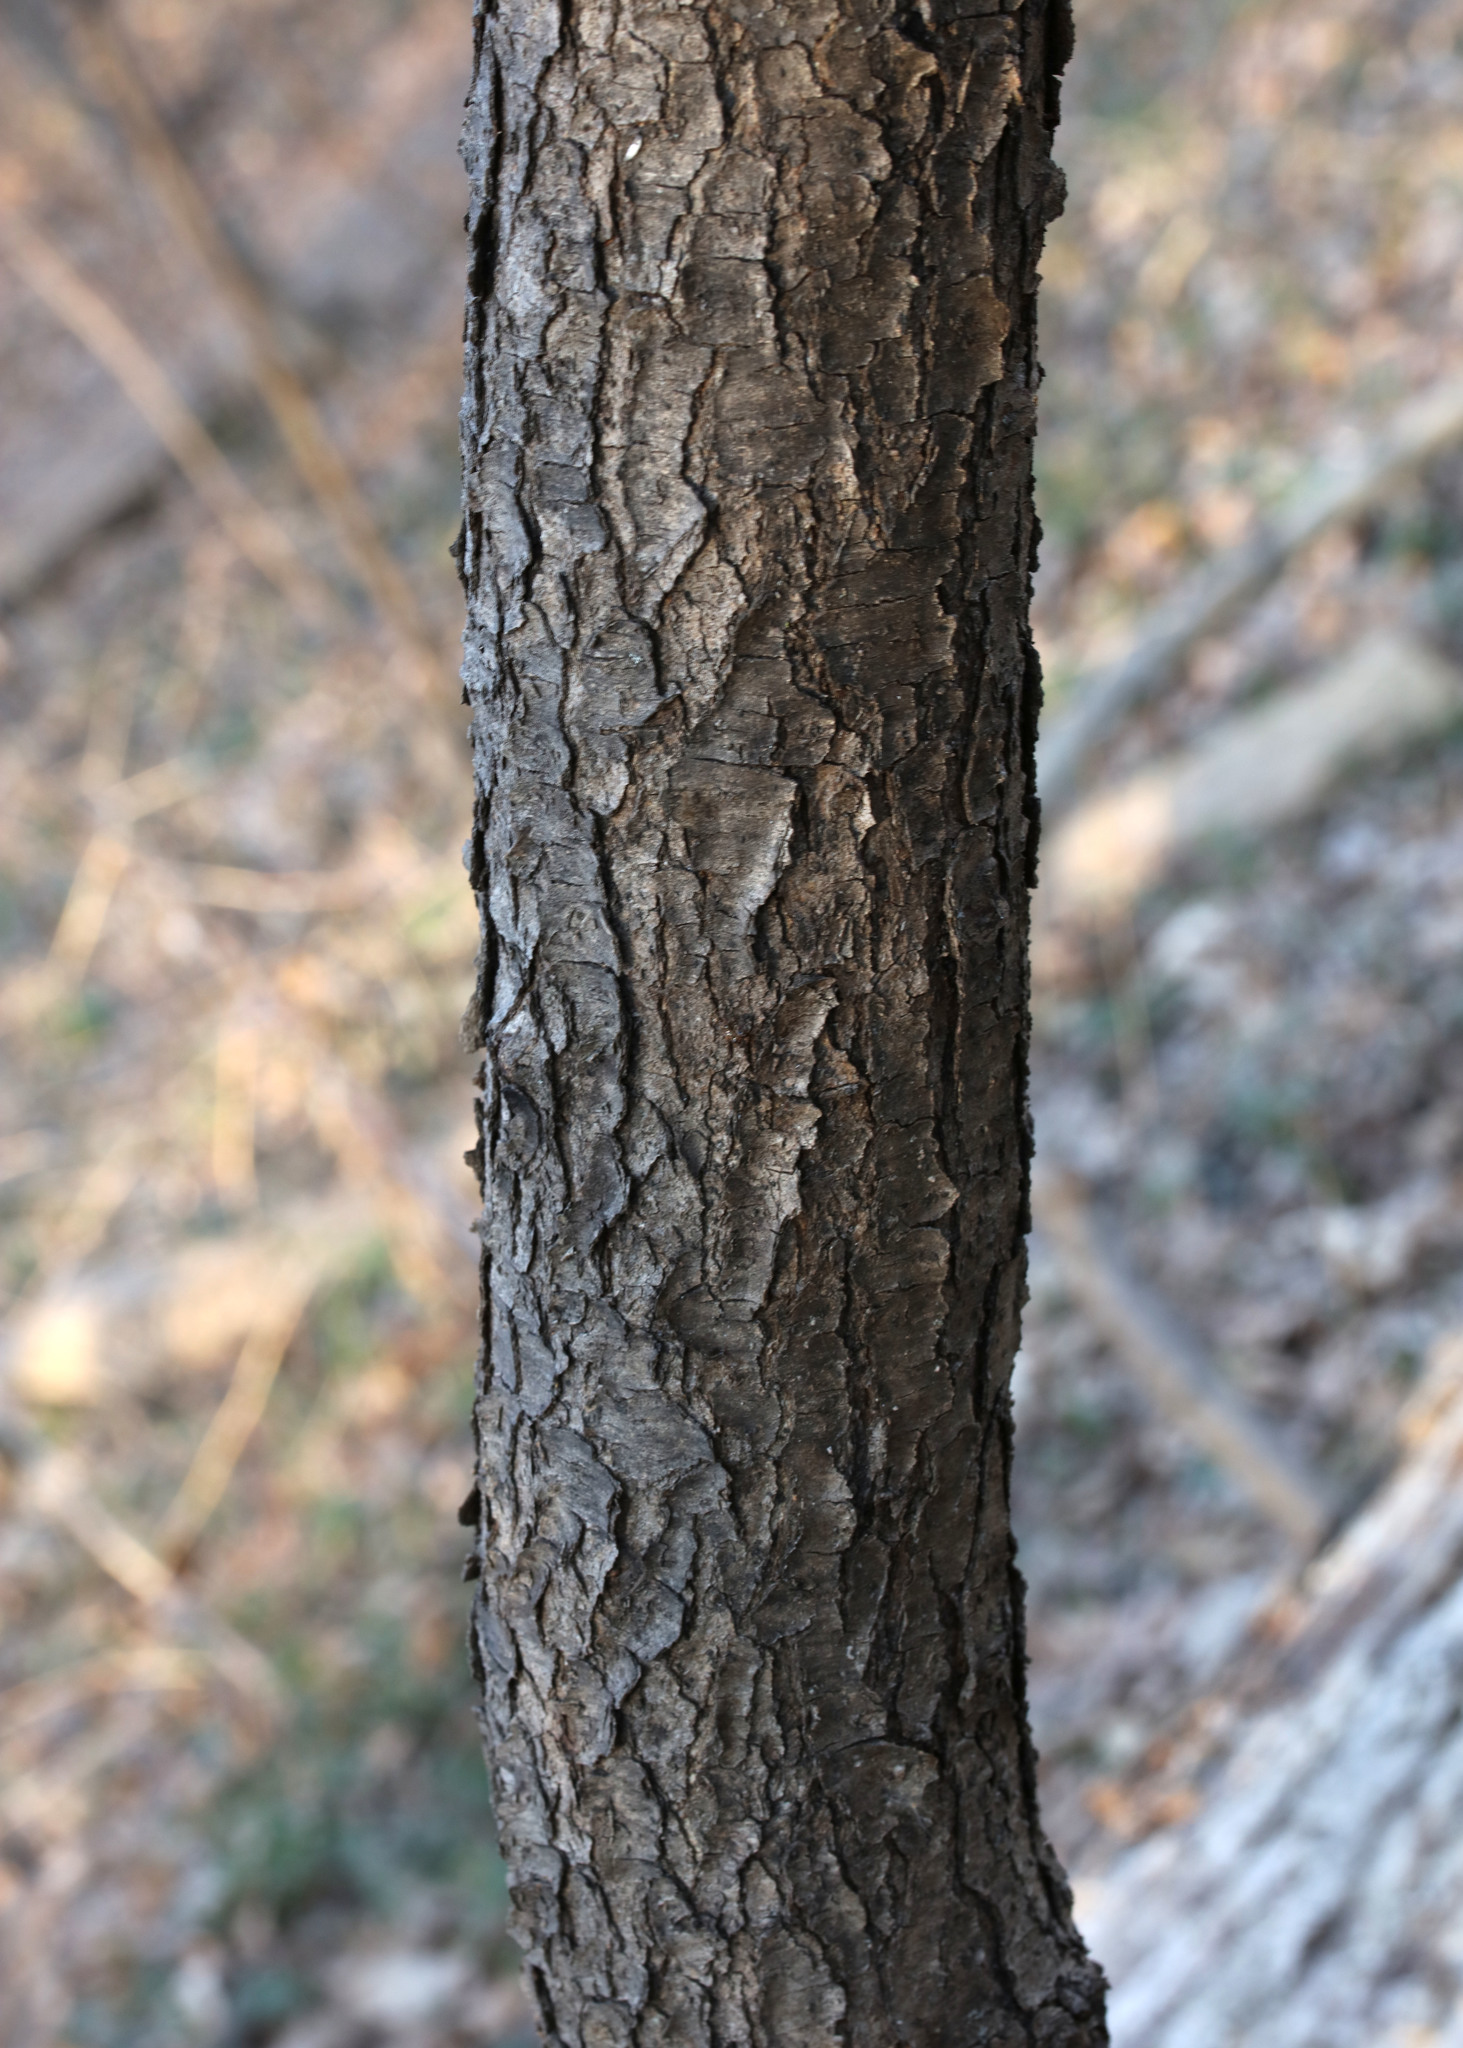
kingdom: Plantae
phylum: Tracheophyta
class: Magnoliopsida
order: Rosales
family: Rosaceae
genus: Prunus
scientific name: Prunus serotina
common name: Black cherry
